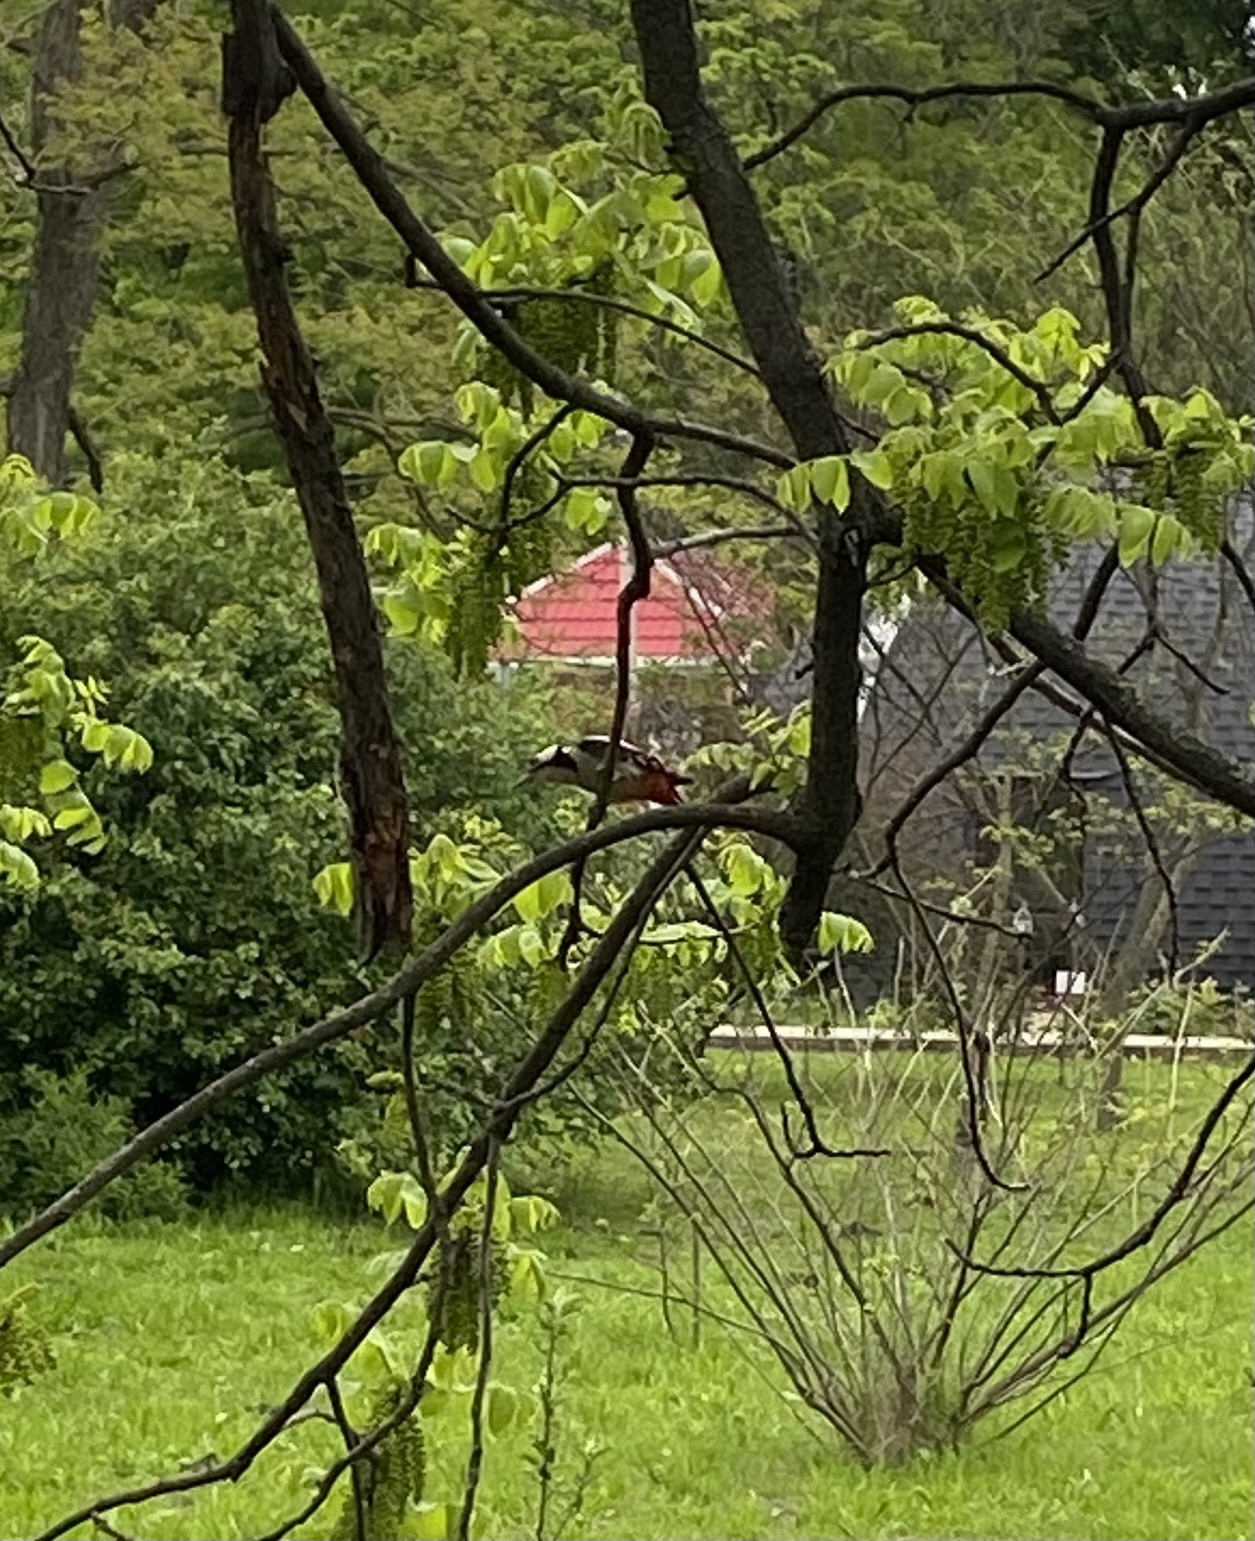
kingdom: Animalia
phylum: Chordata
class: Aves
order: Piciformes
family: Picidae
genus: Dendrocopos
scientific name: Dendrocopos major
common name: Great spotted woodpecker
